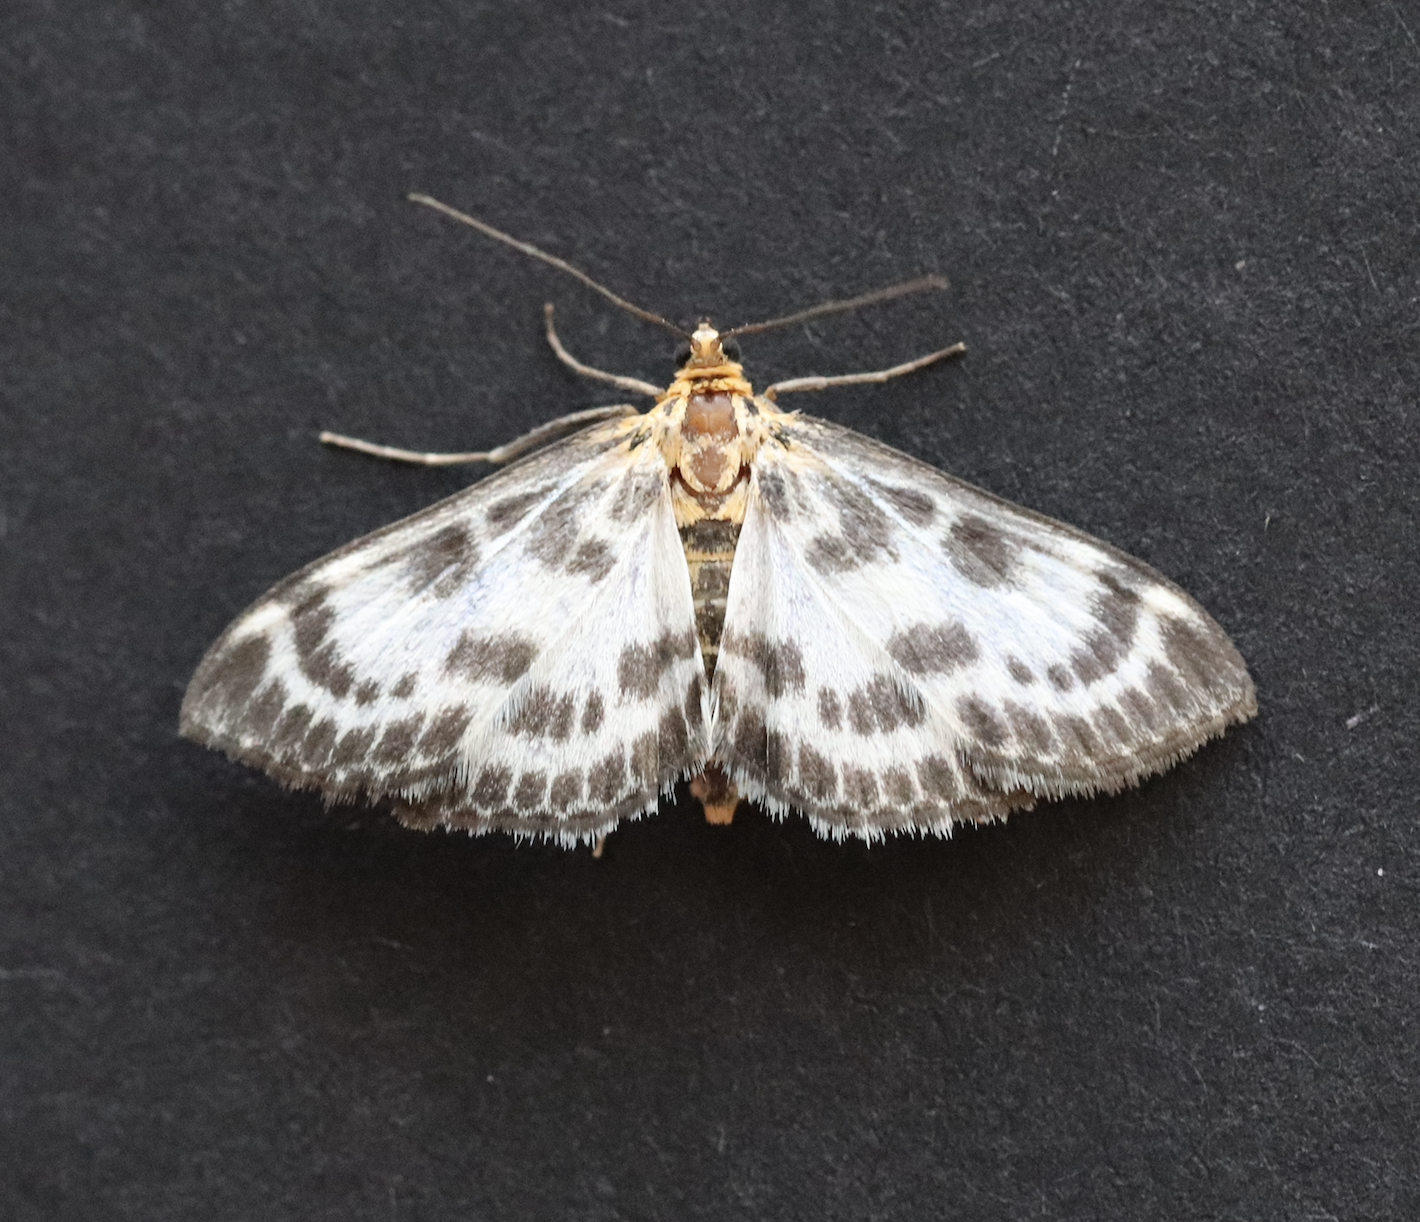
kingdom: Animalia
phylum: Arthropoda
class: Insecta
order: Lepidoptera
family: Crambidae
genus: Anania
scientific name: Anania hortulata
